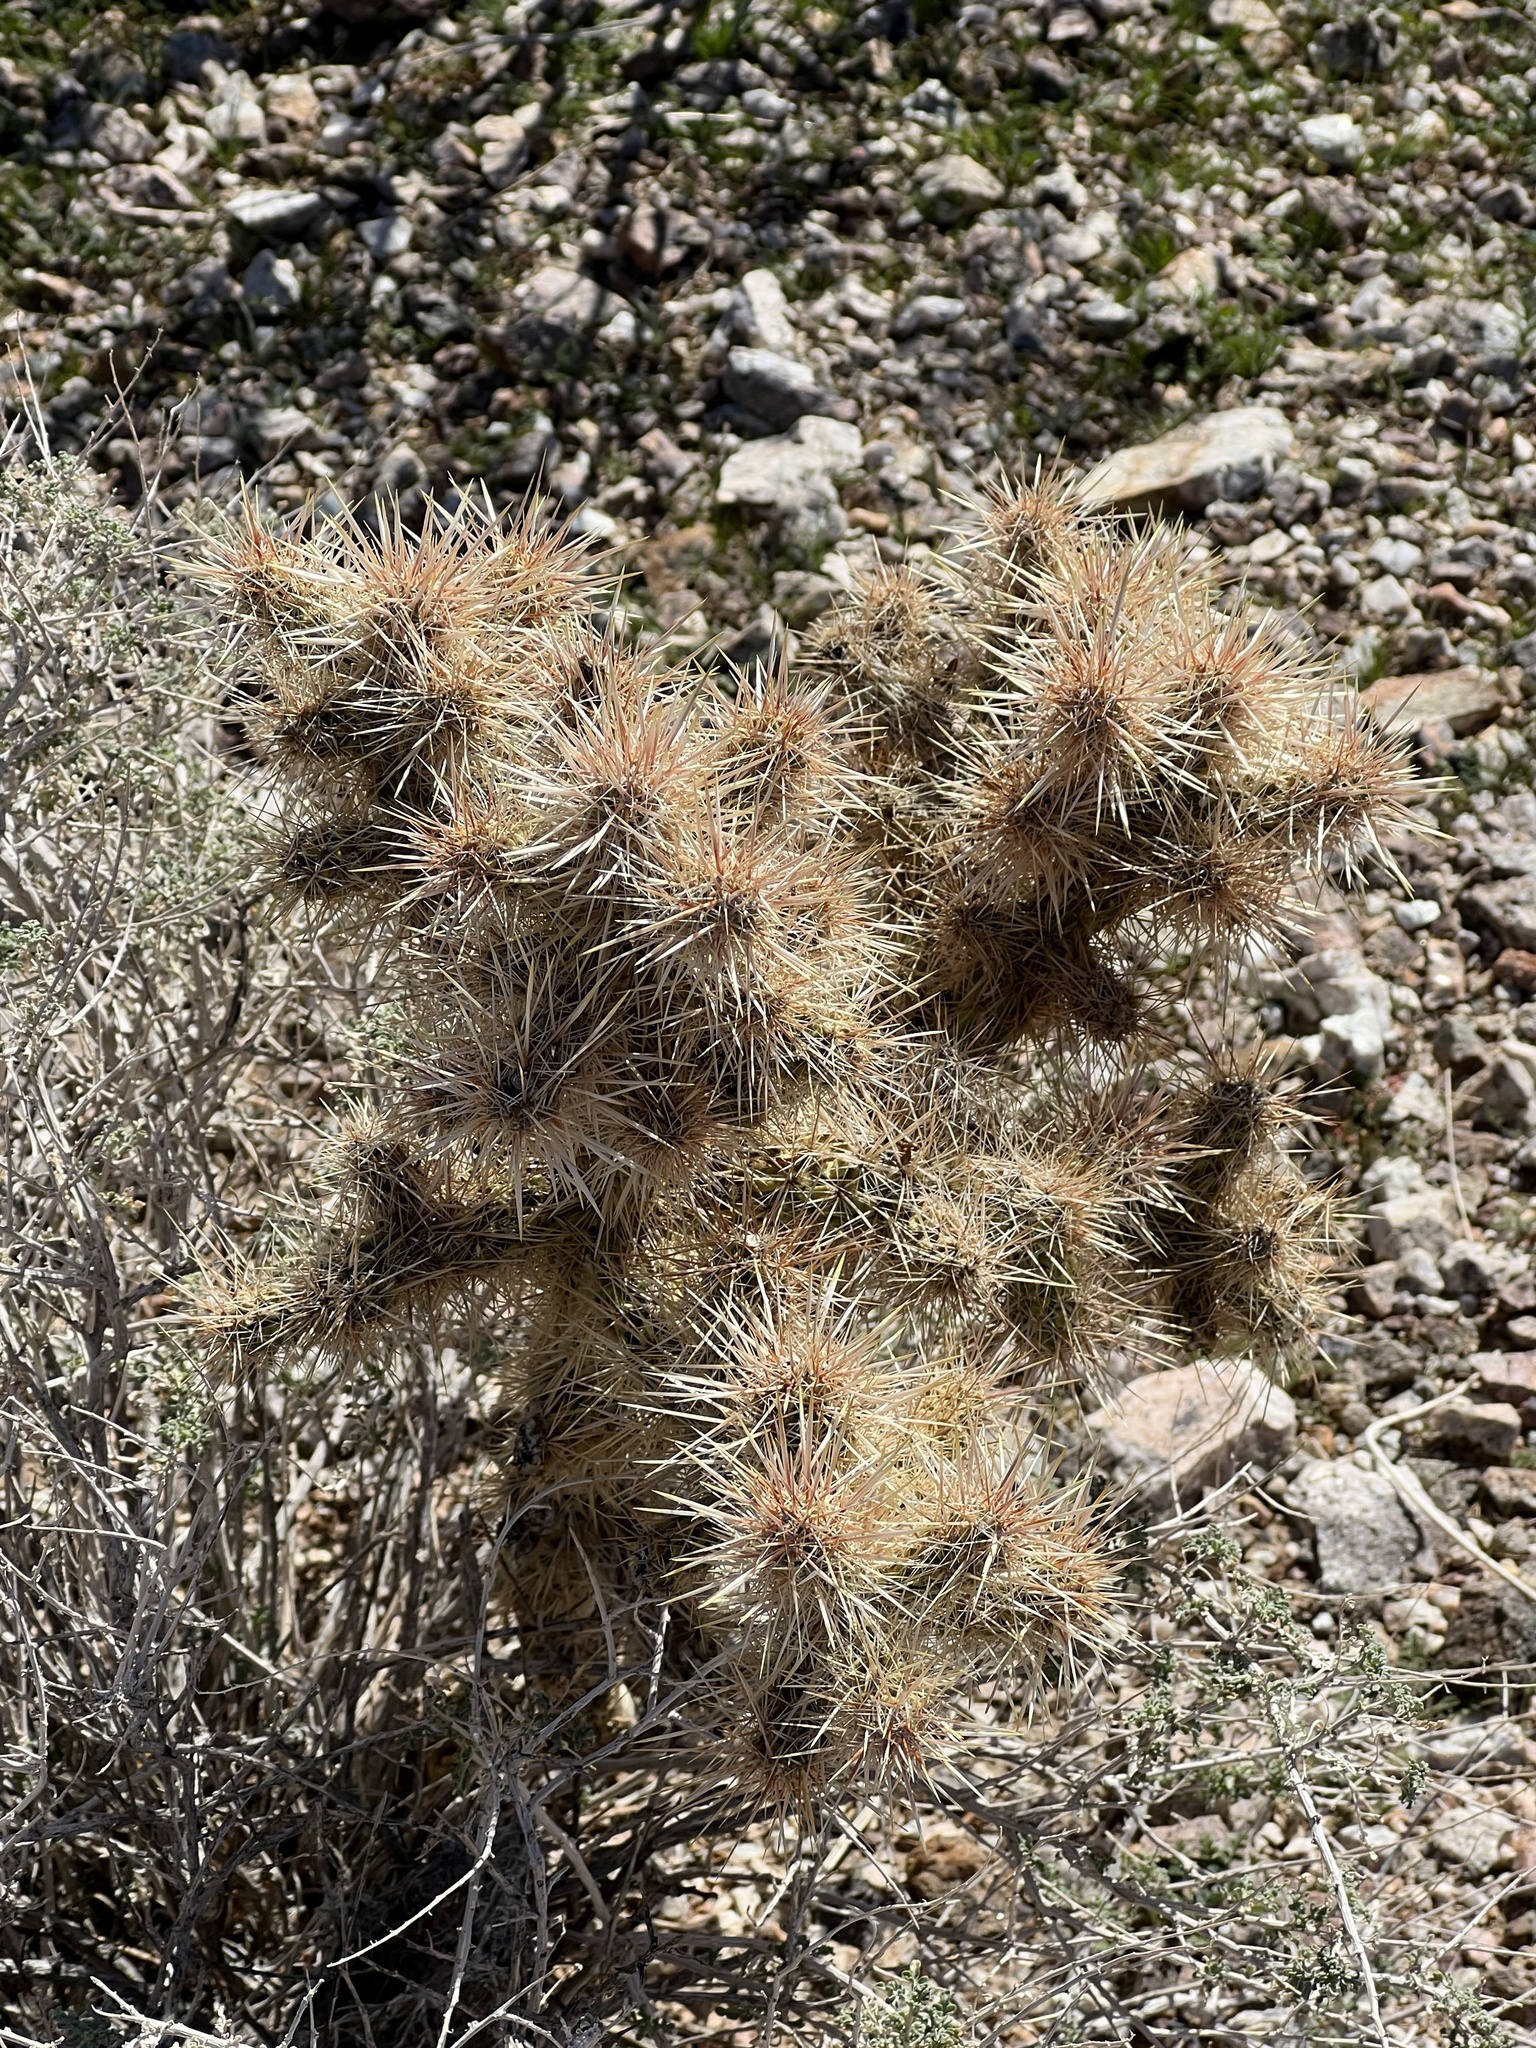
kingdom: Plantae
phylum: Tracheophyta
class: Magnoliopsida
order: Caryophyllales
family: Cactaceae
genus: Cylindropuntia
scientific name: Cylindropuntia echinocarpa
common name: Ground cholla
